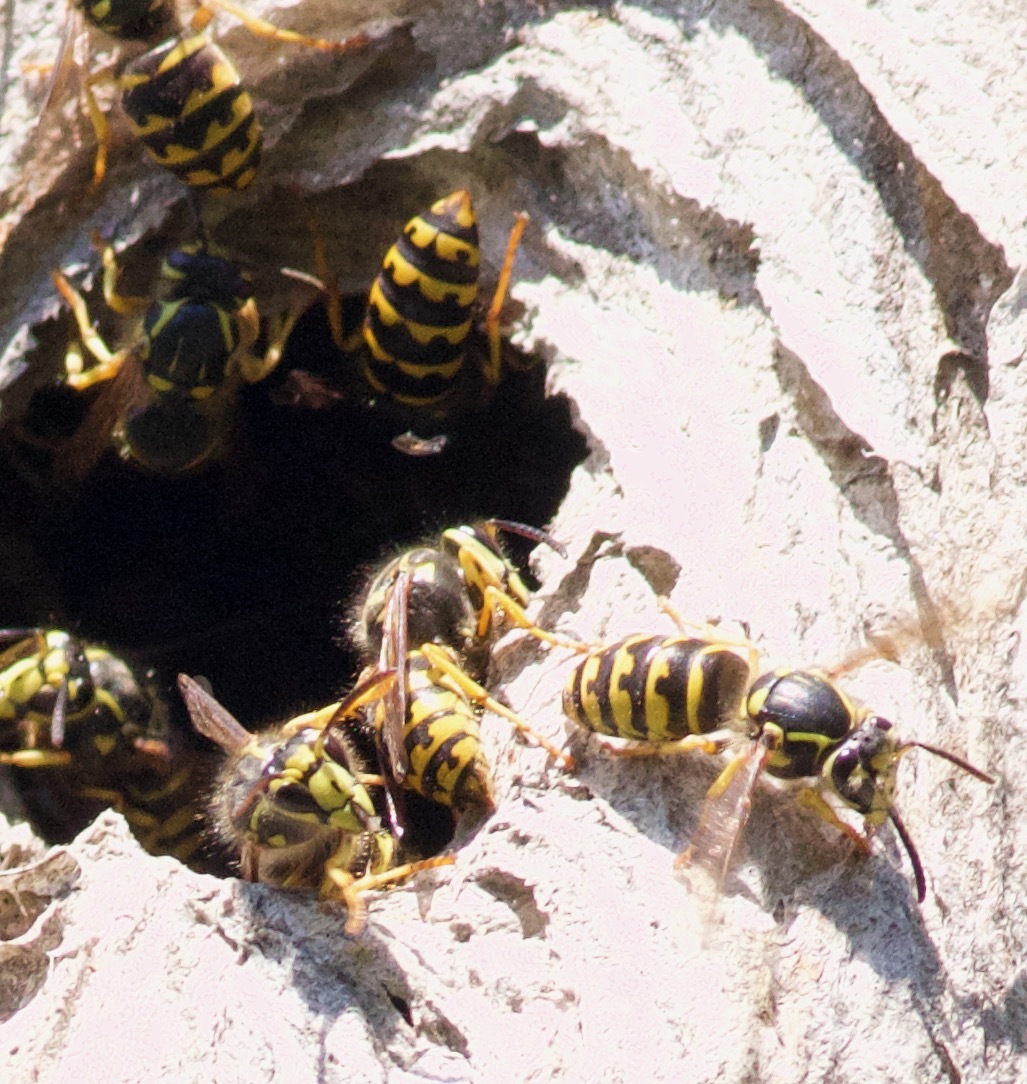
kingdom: Animalia
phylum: Arthropoda
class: Insecta
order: Hymenoptera
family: Vespidae
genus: Dolichovespula
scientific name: Dolichovespula arenaria
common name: Aerial yellowjacket
